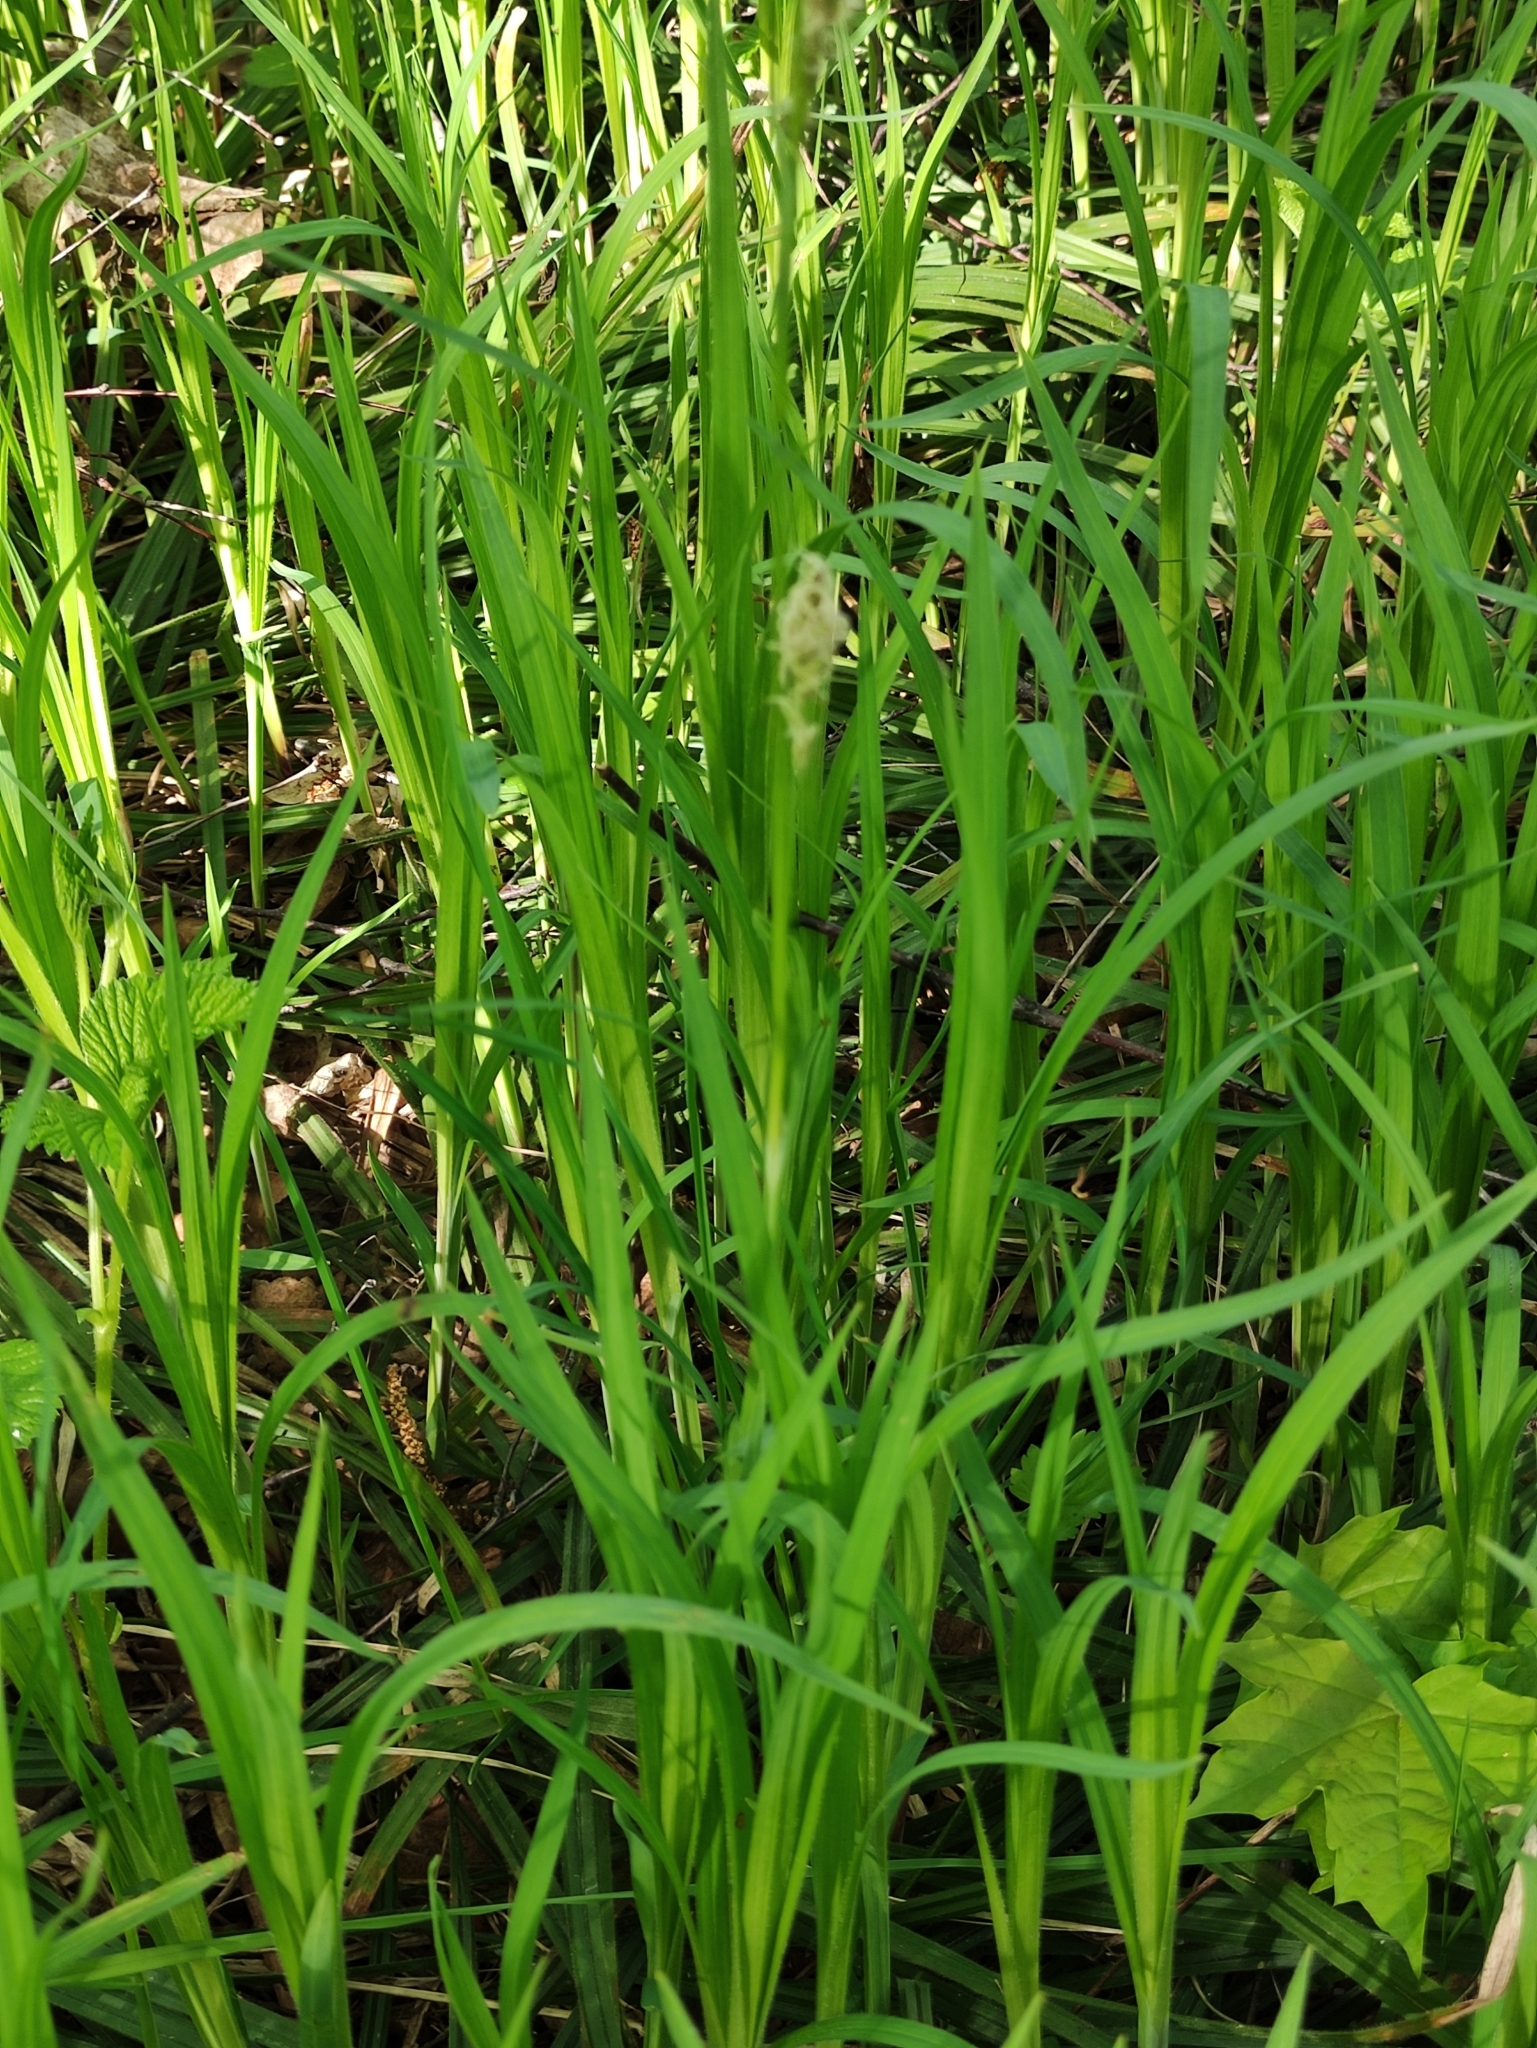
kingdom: Plantae
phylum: Tracheophyta
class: Liliopsida
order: Poales
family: Cyperaceae
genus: Carex
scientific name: Carex pilosa
